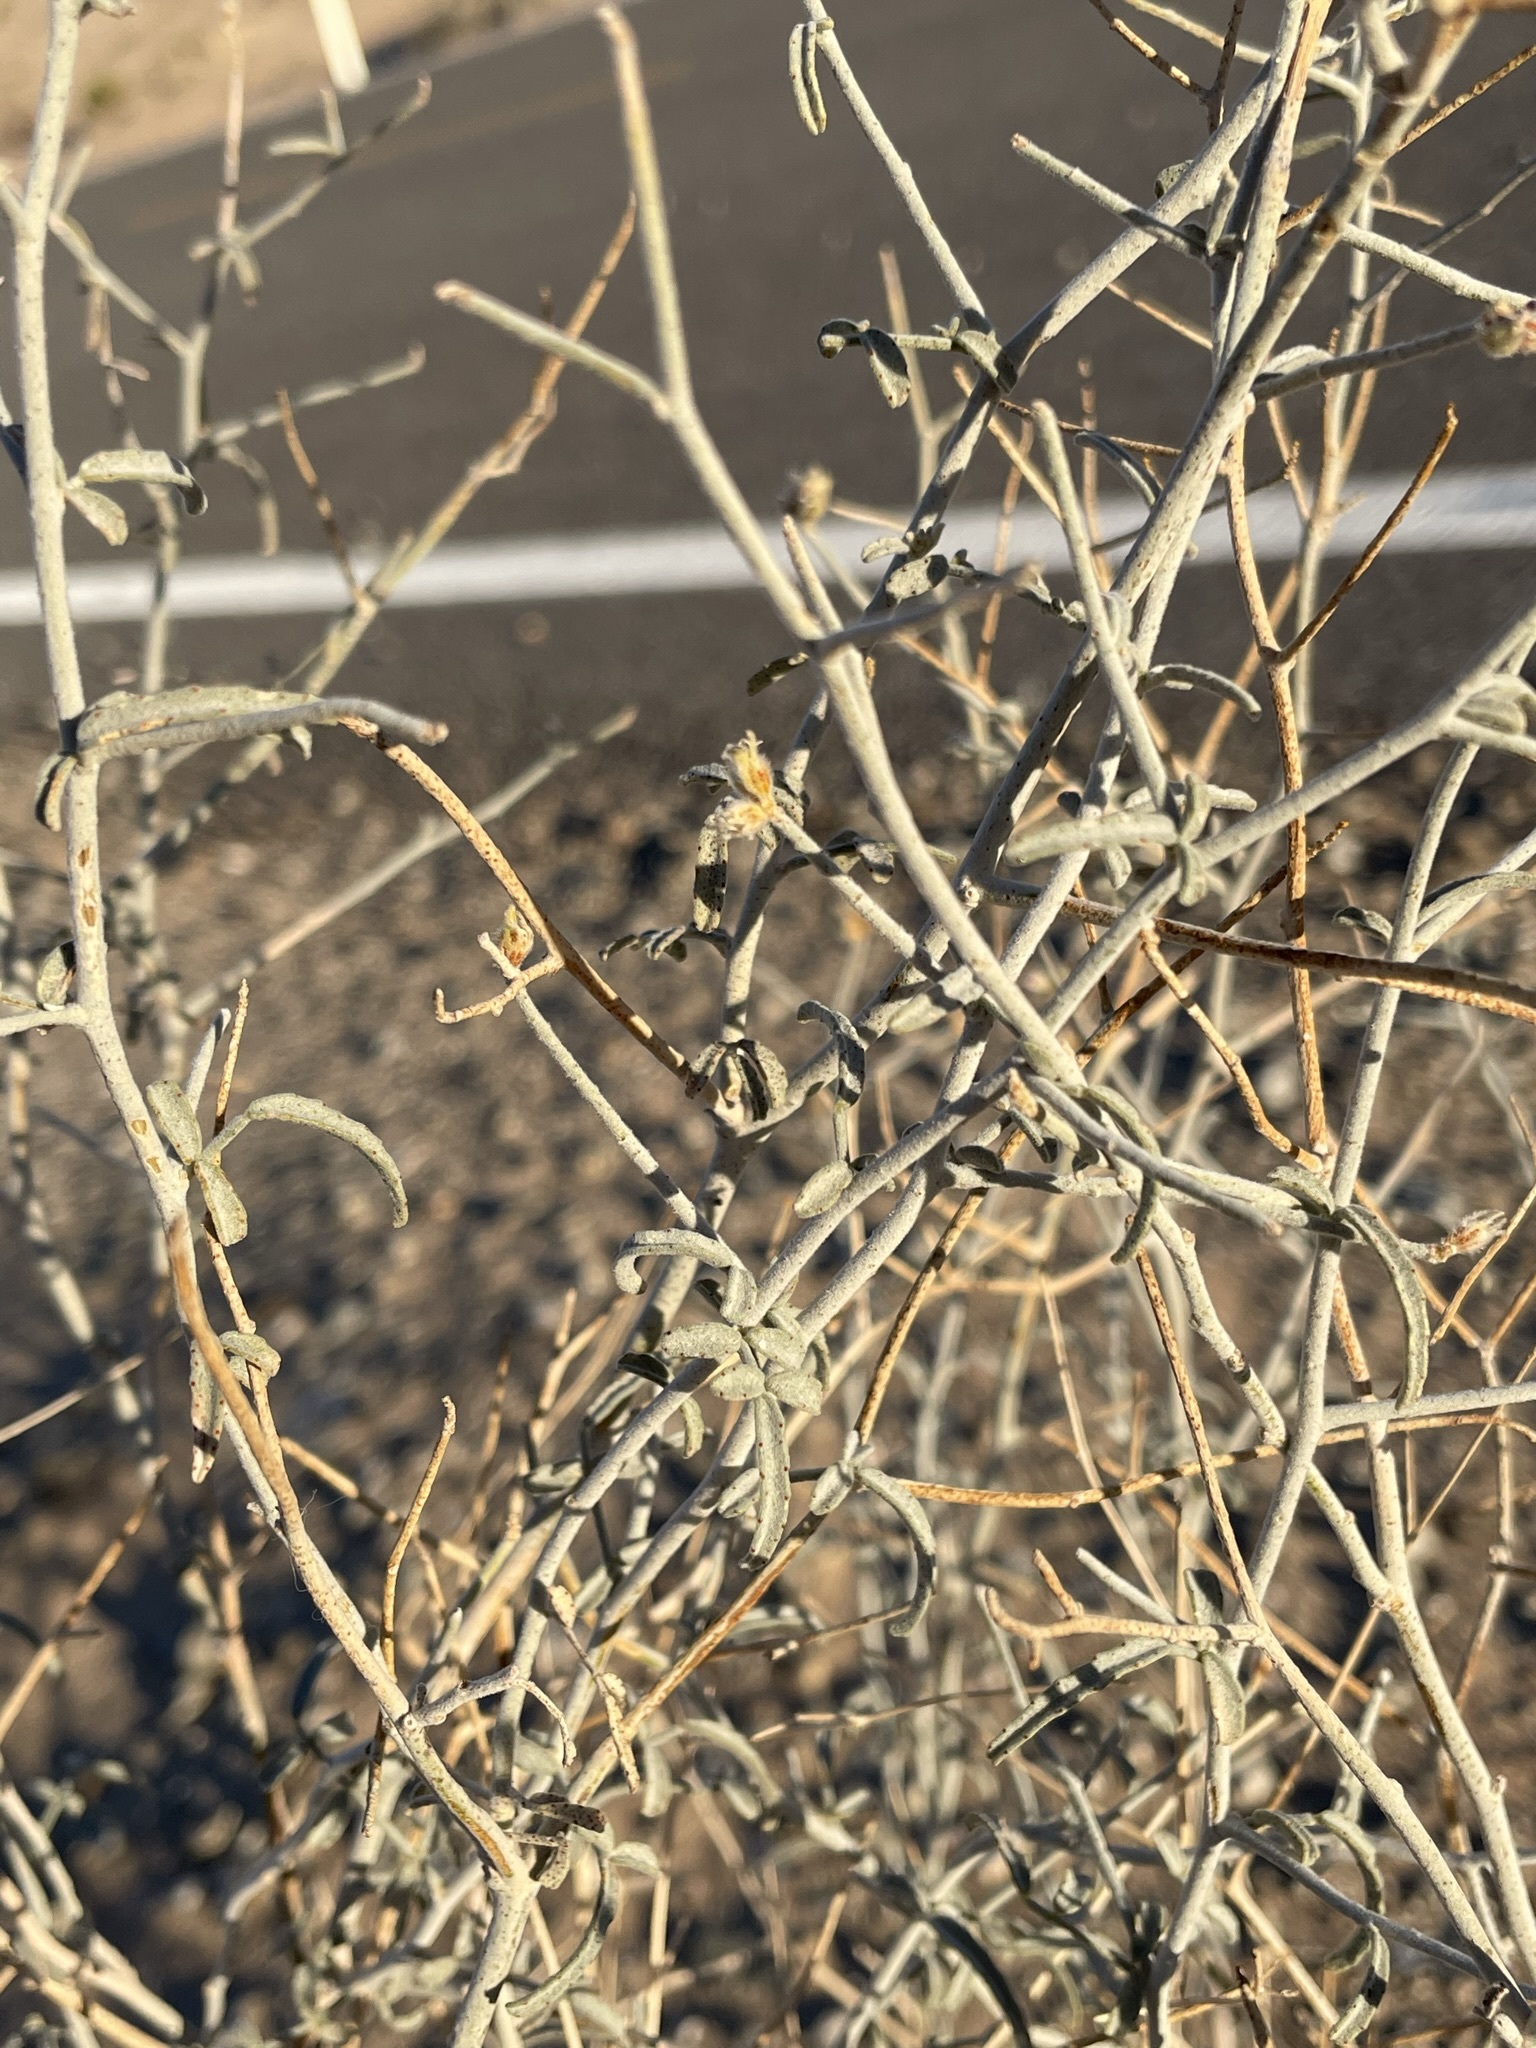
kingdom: Plantae
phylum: Tracheophyta
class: Magnoliopsida
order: Fabales
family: Fabaceae
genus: Psorothamnus
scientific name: Psorothamnus emoryi
